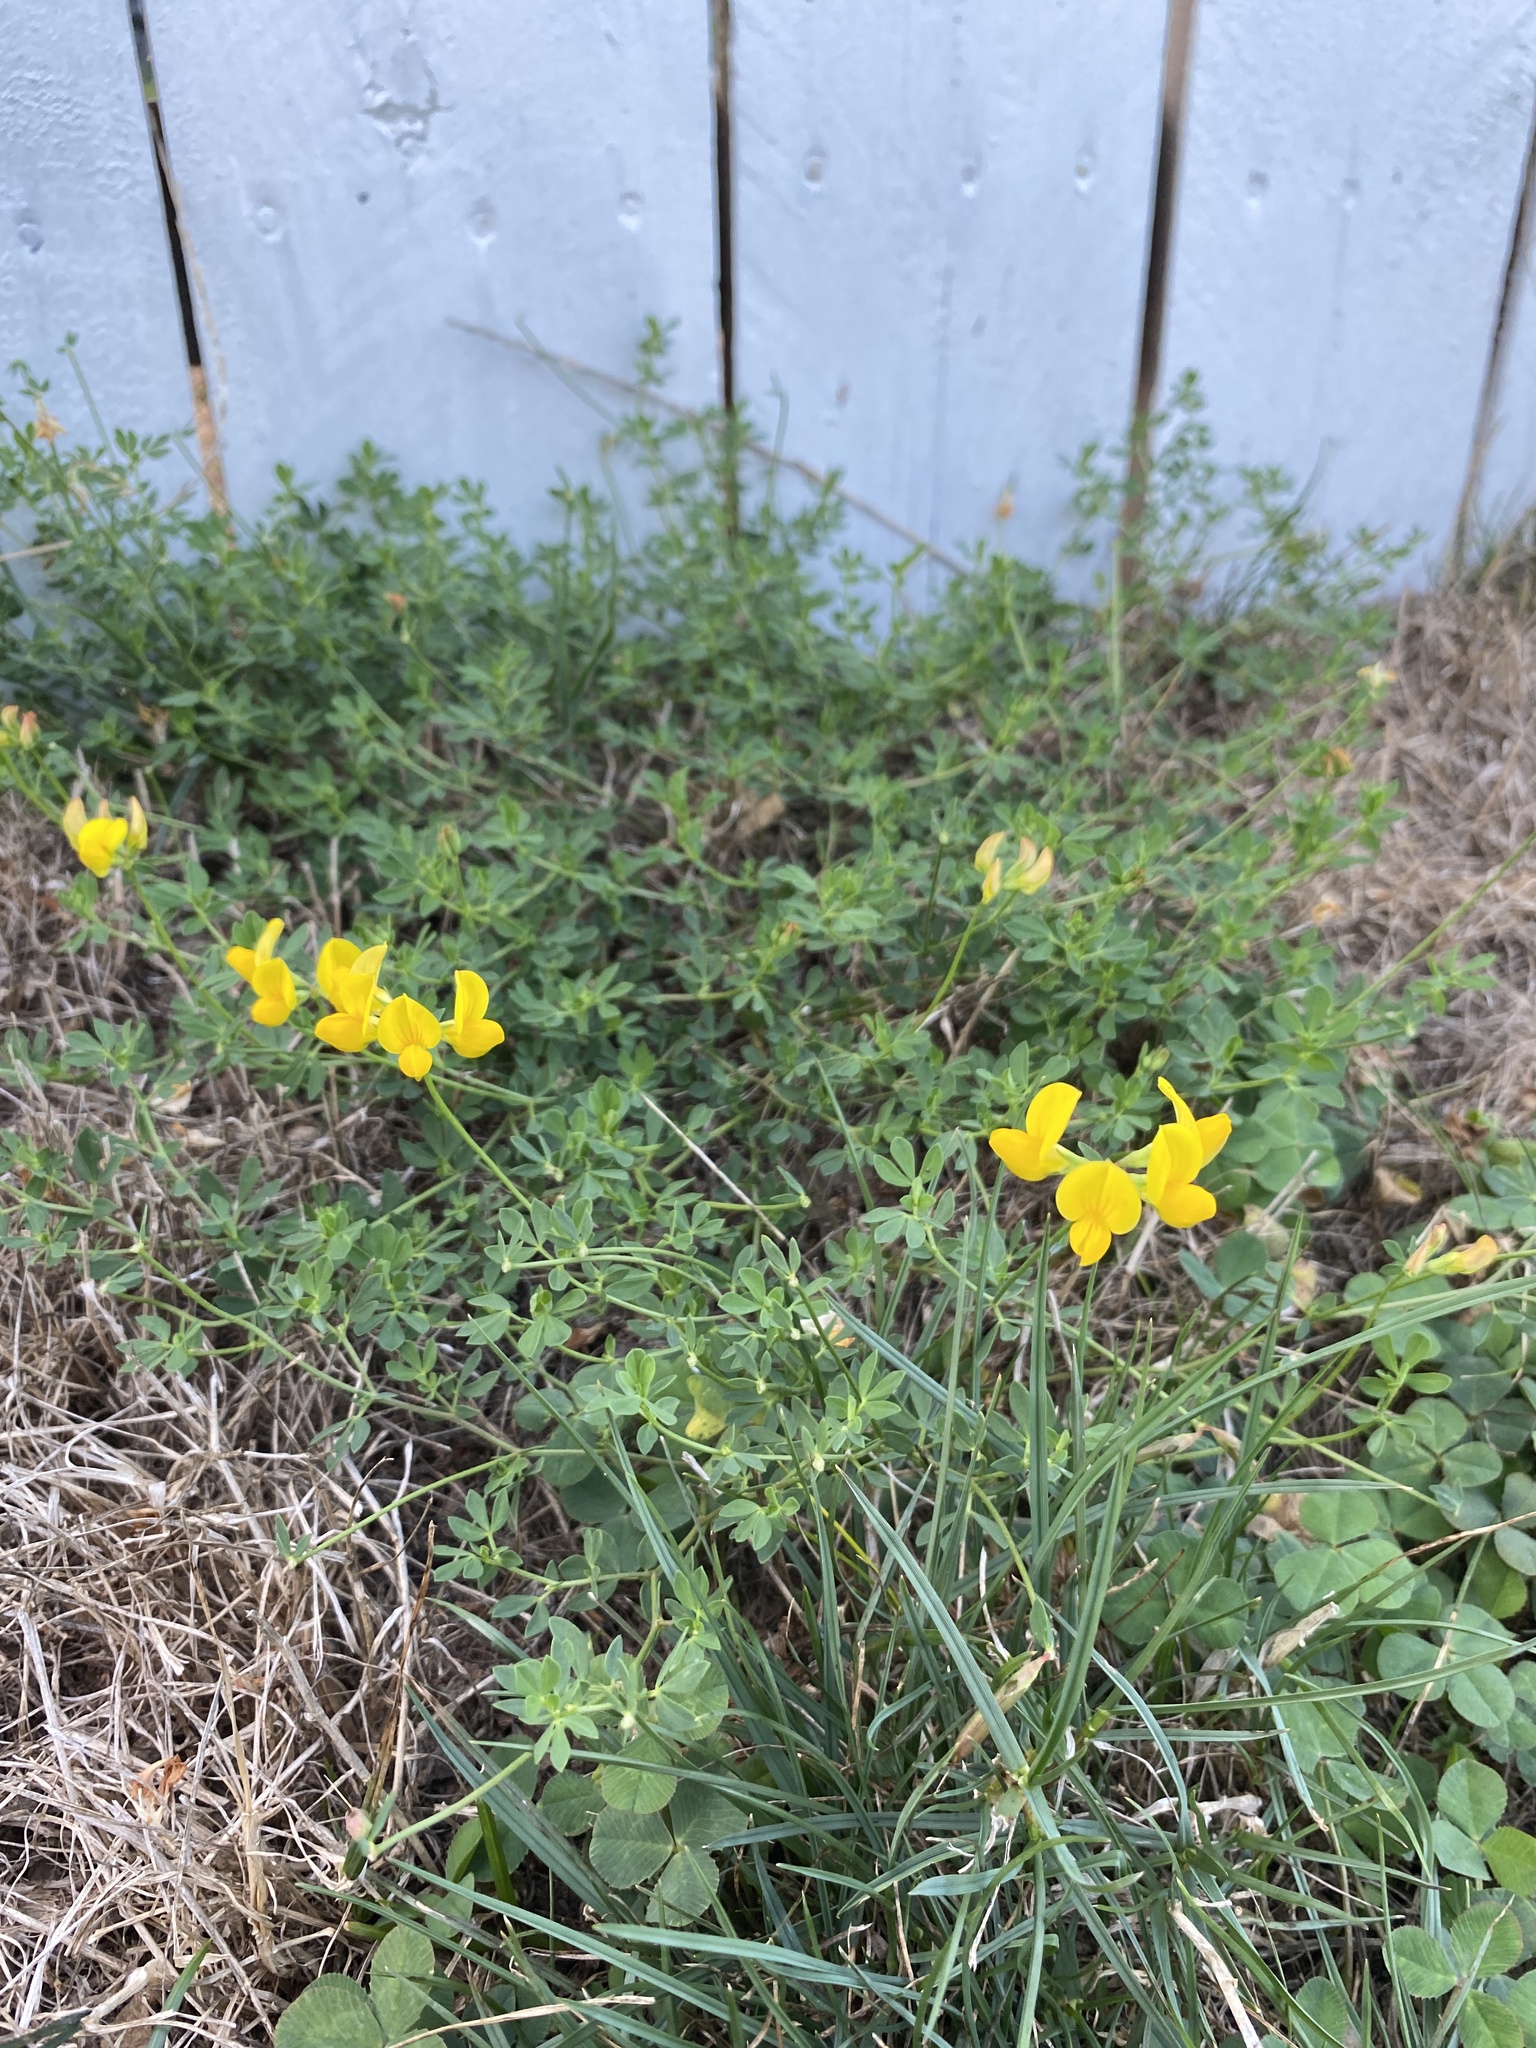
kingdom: Plantae
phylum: Tracheophyta
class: Magnoliopsida
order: Fabales
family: Fabaceae
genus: Lotus
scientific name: Lotus corniculatus
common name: Common bird's-foot-trefoil
